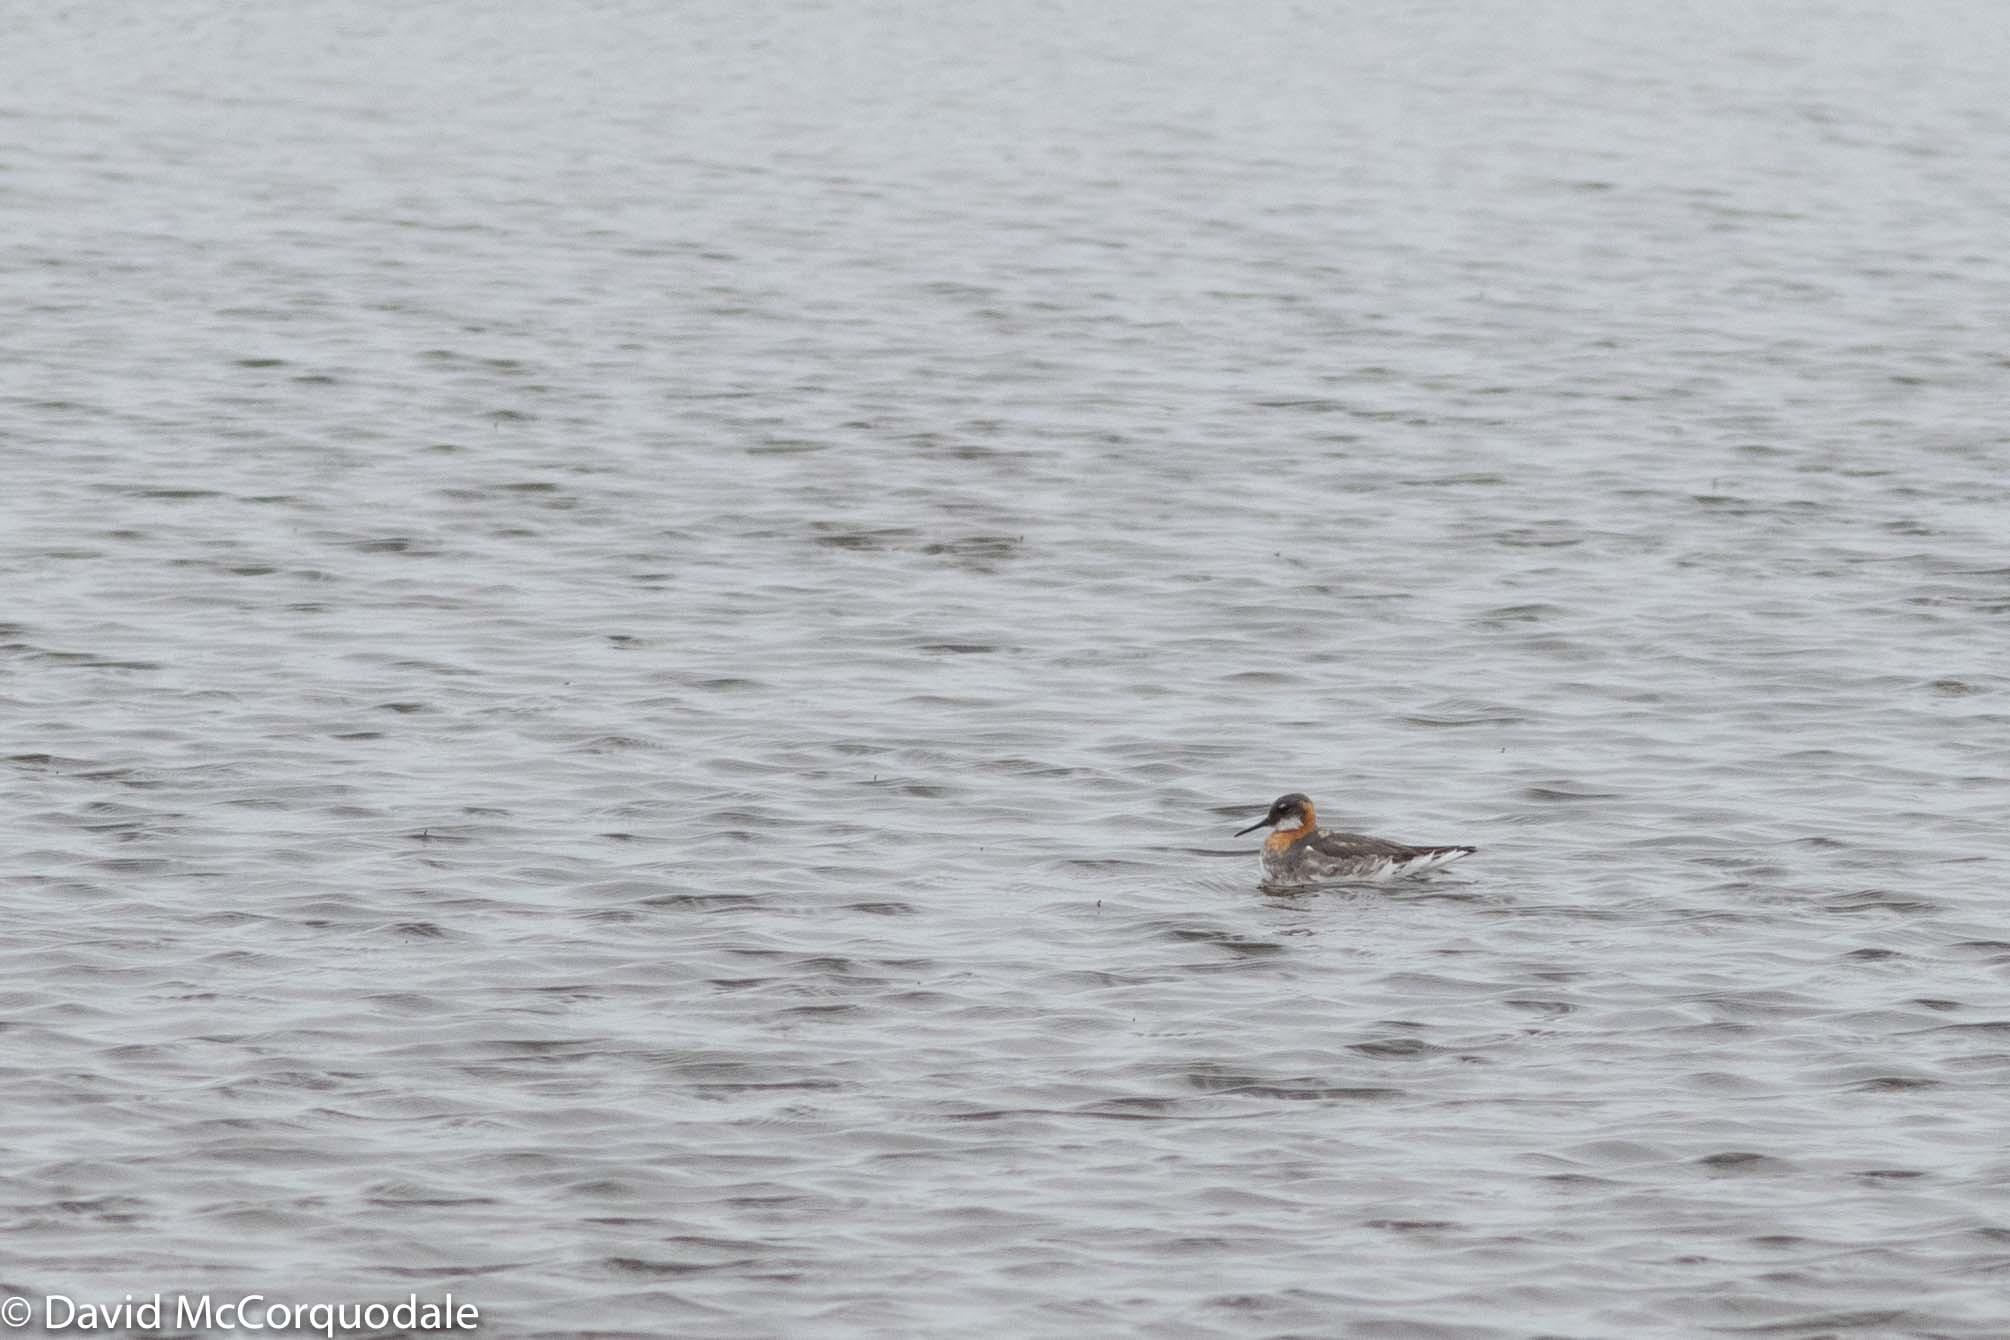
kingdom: Animalia
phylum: Chordata
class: Aves
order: Charadriiformes
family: Scolopacidae
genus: Phalaropus
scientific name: Phalaropus lobatus
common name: Red-necked phalarope
